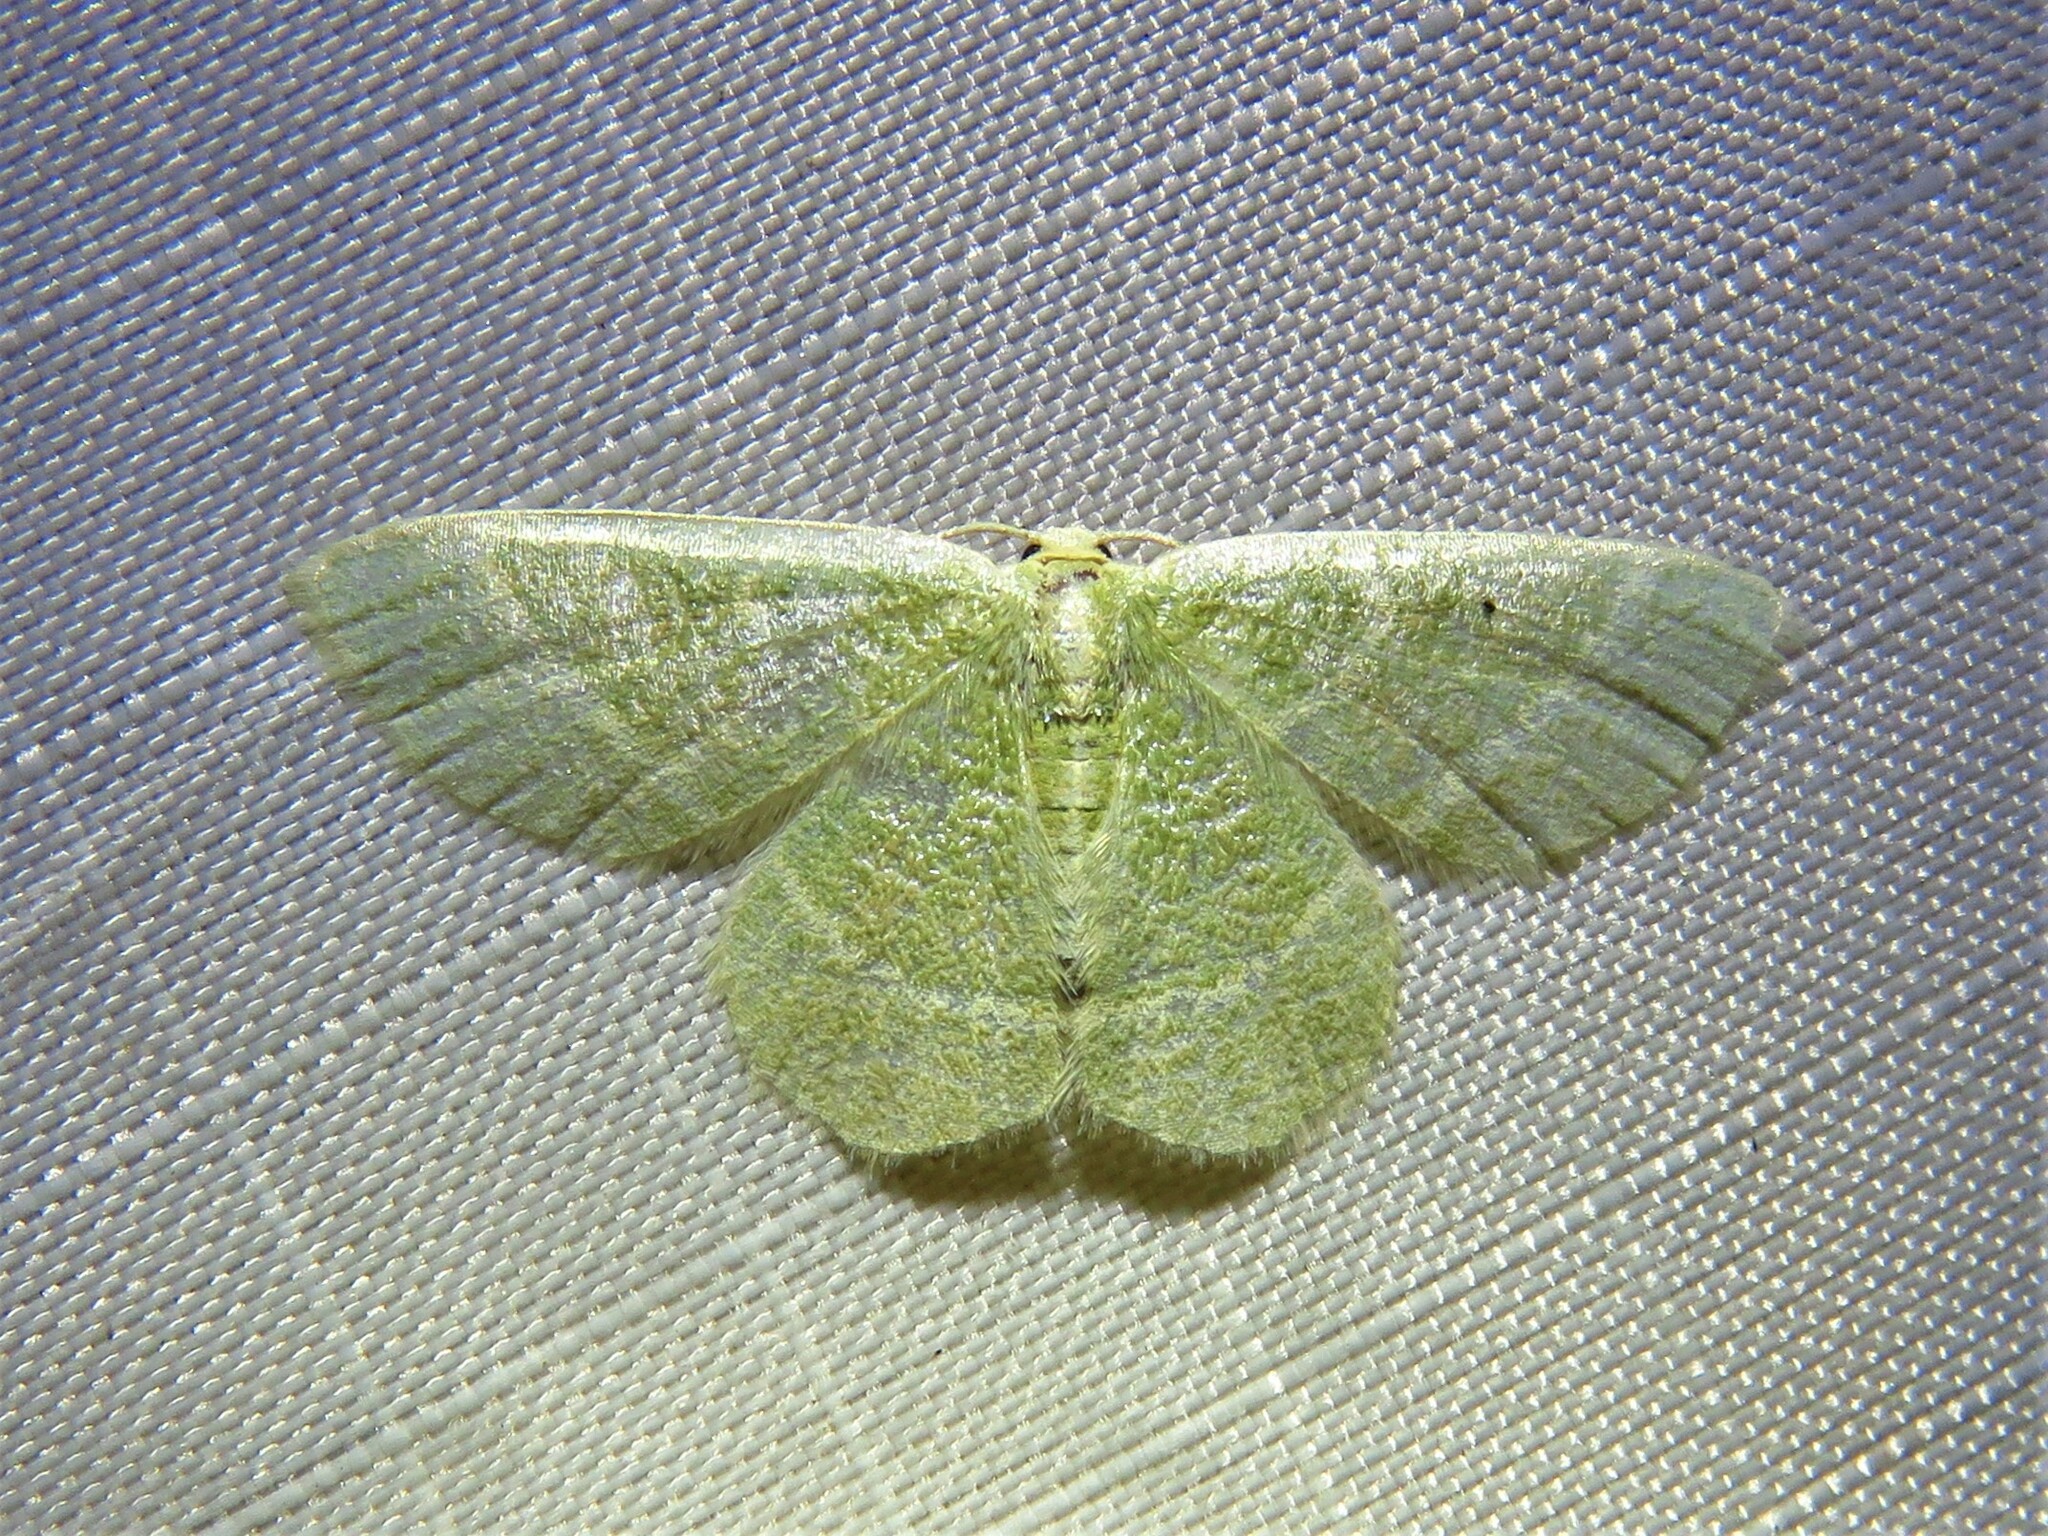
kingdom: Animalia
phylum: Arthropoda
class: Insecta
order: Lepidoptera
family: Geometridae
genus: Chlorochlamys
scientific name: Chlorochlamys chloroleucaria
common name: Blackberry looper
